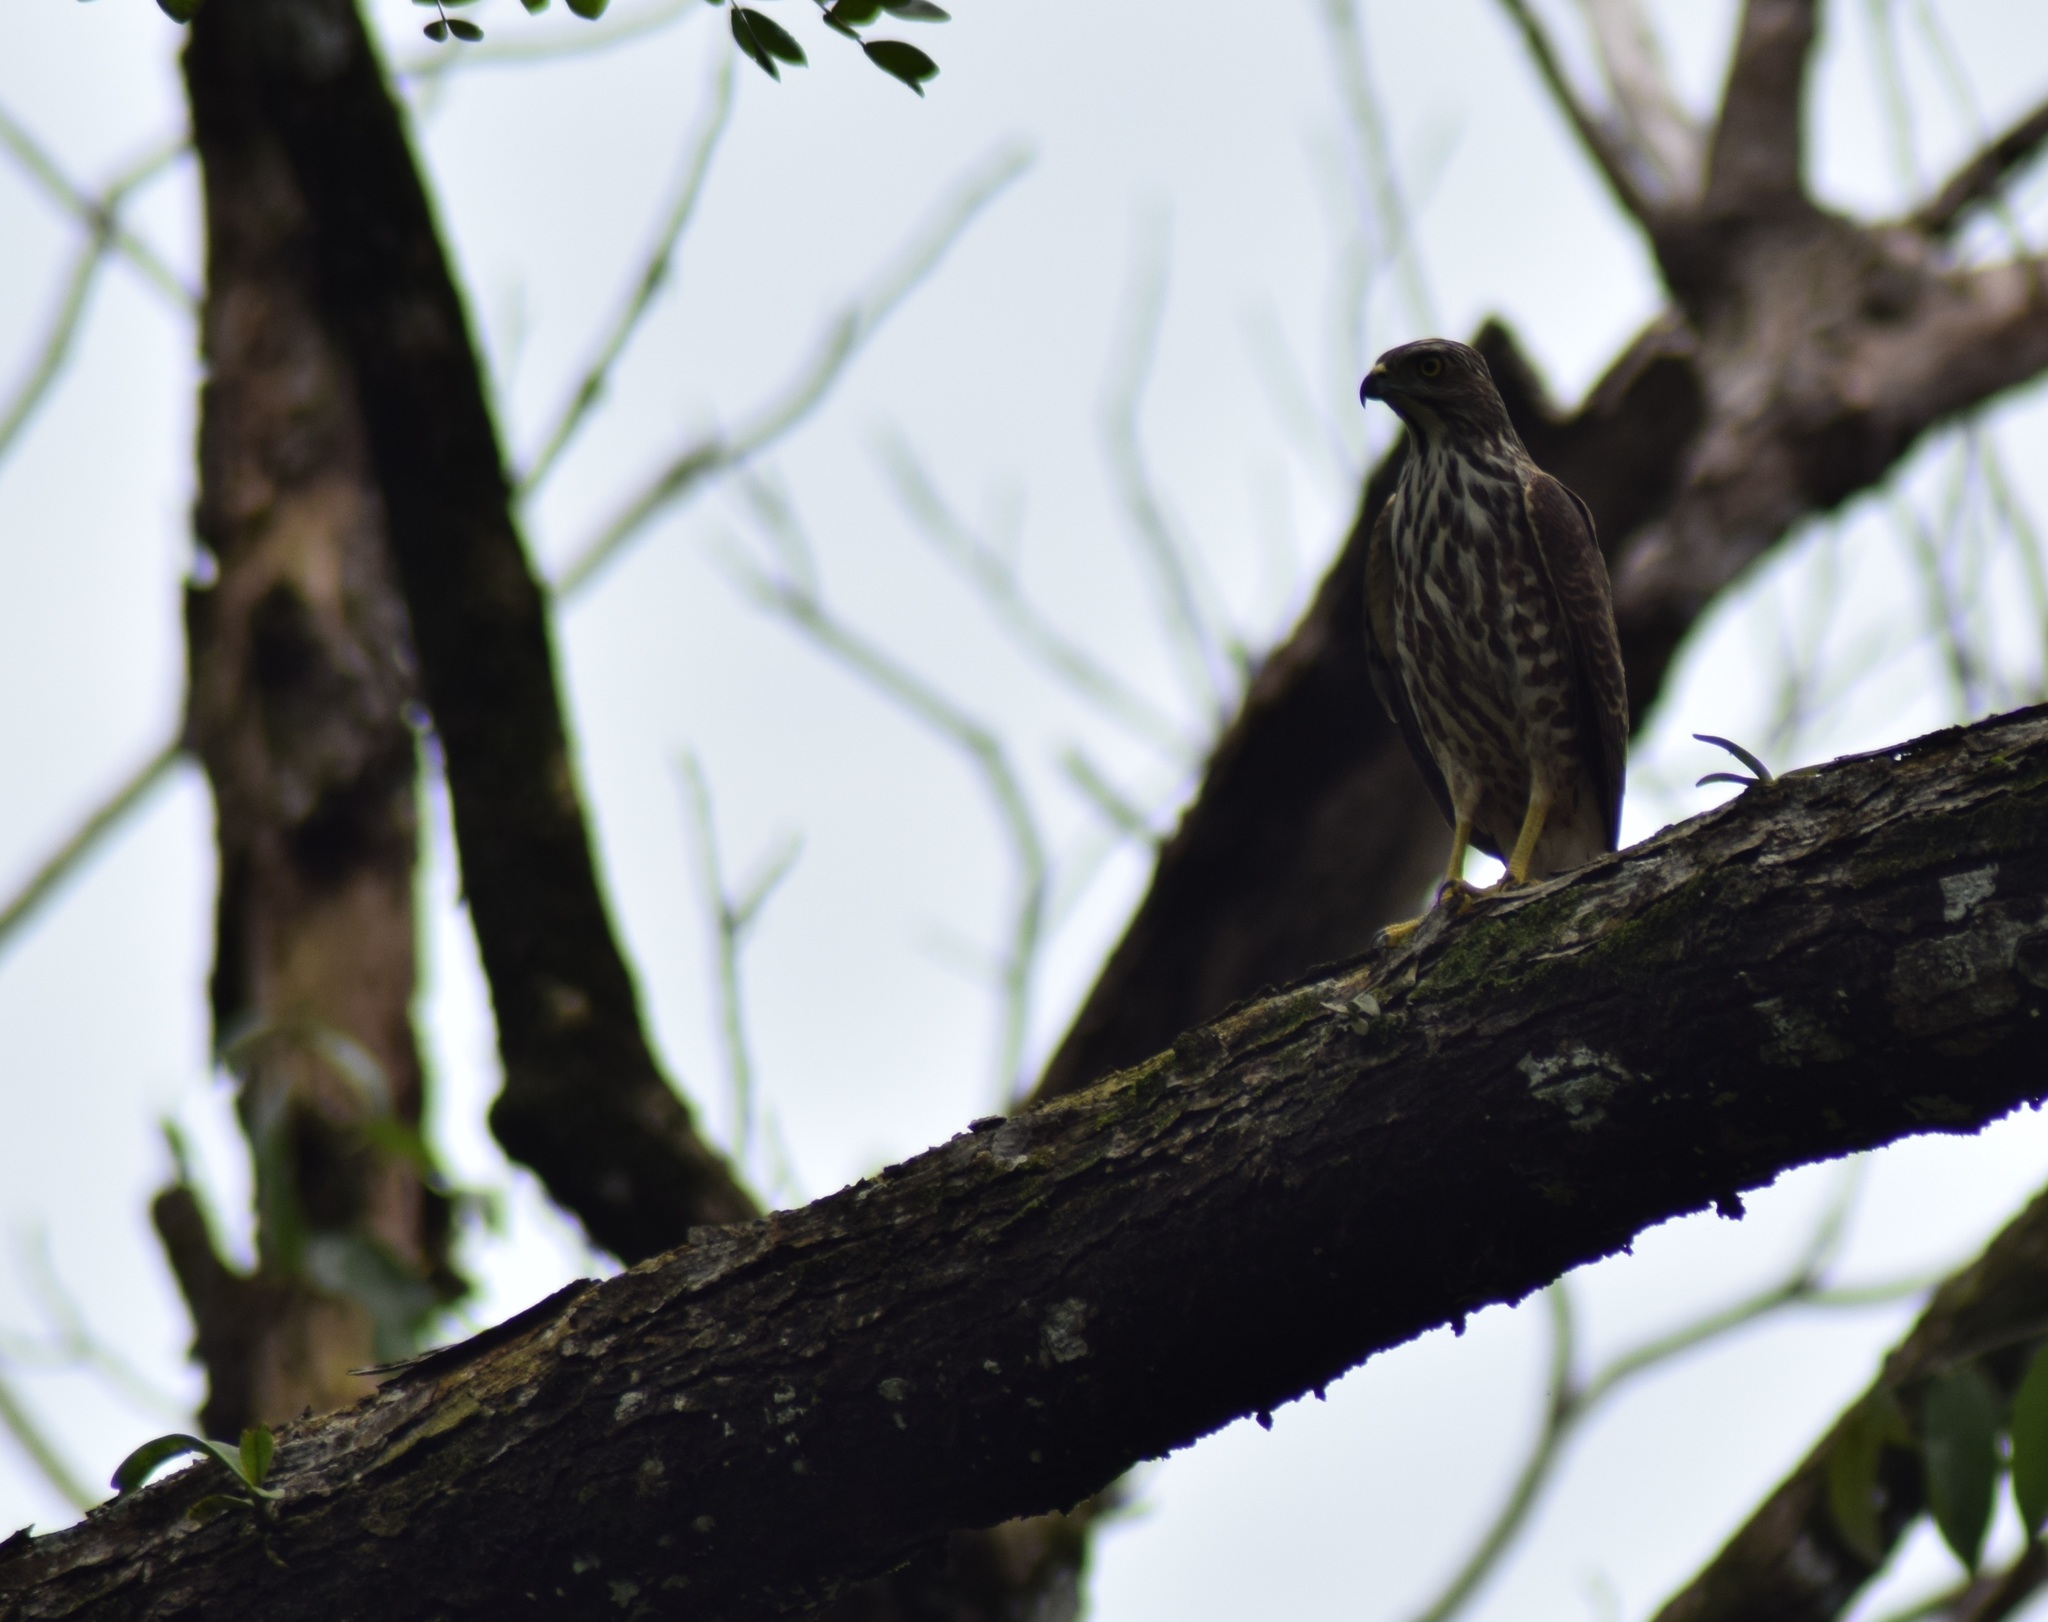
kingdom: Animalia
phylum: Chordata
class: Aves
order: Accipitriformes
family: Accipitridae
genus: Accipiter
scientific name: Accipiter badius
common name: Shikra
